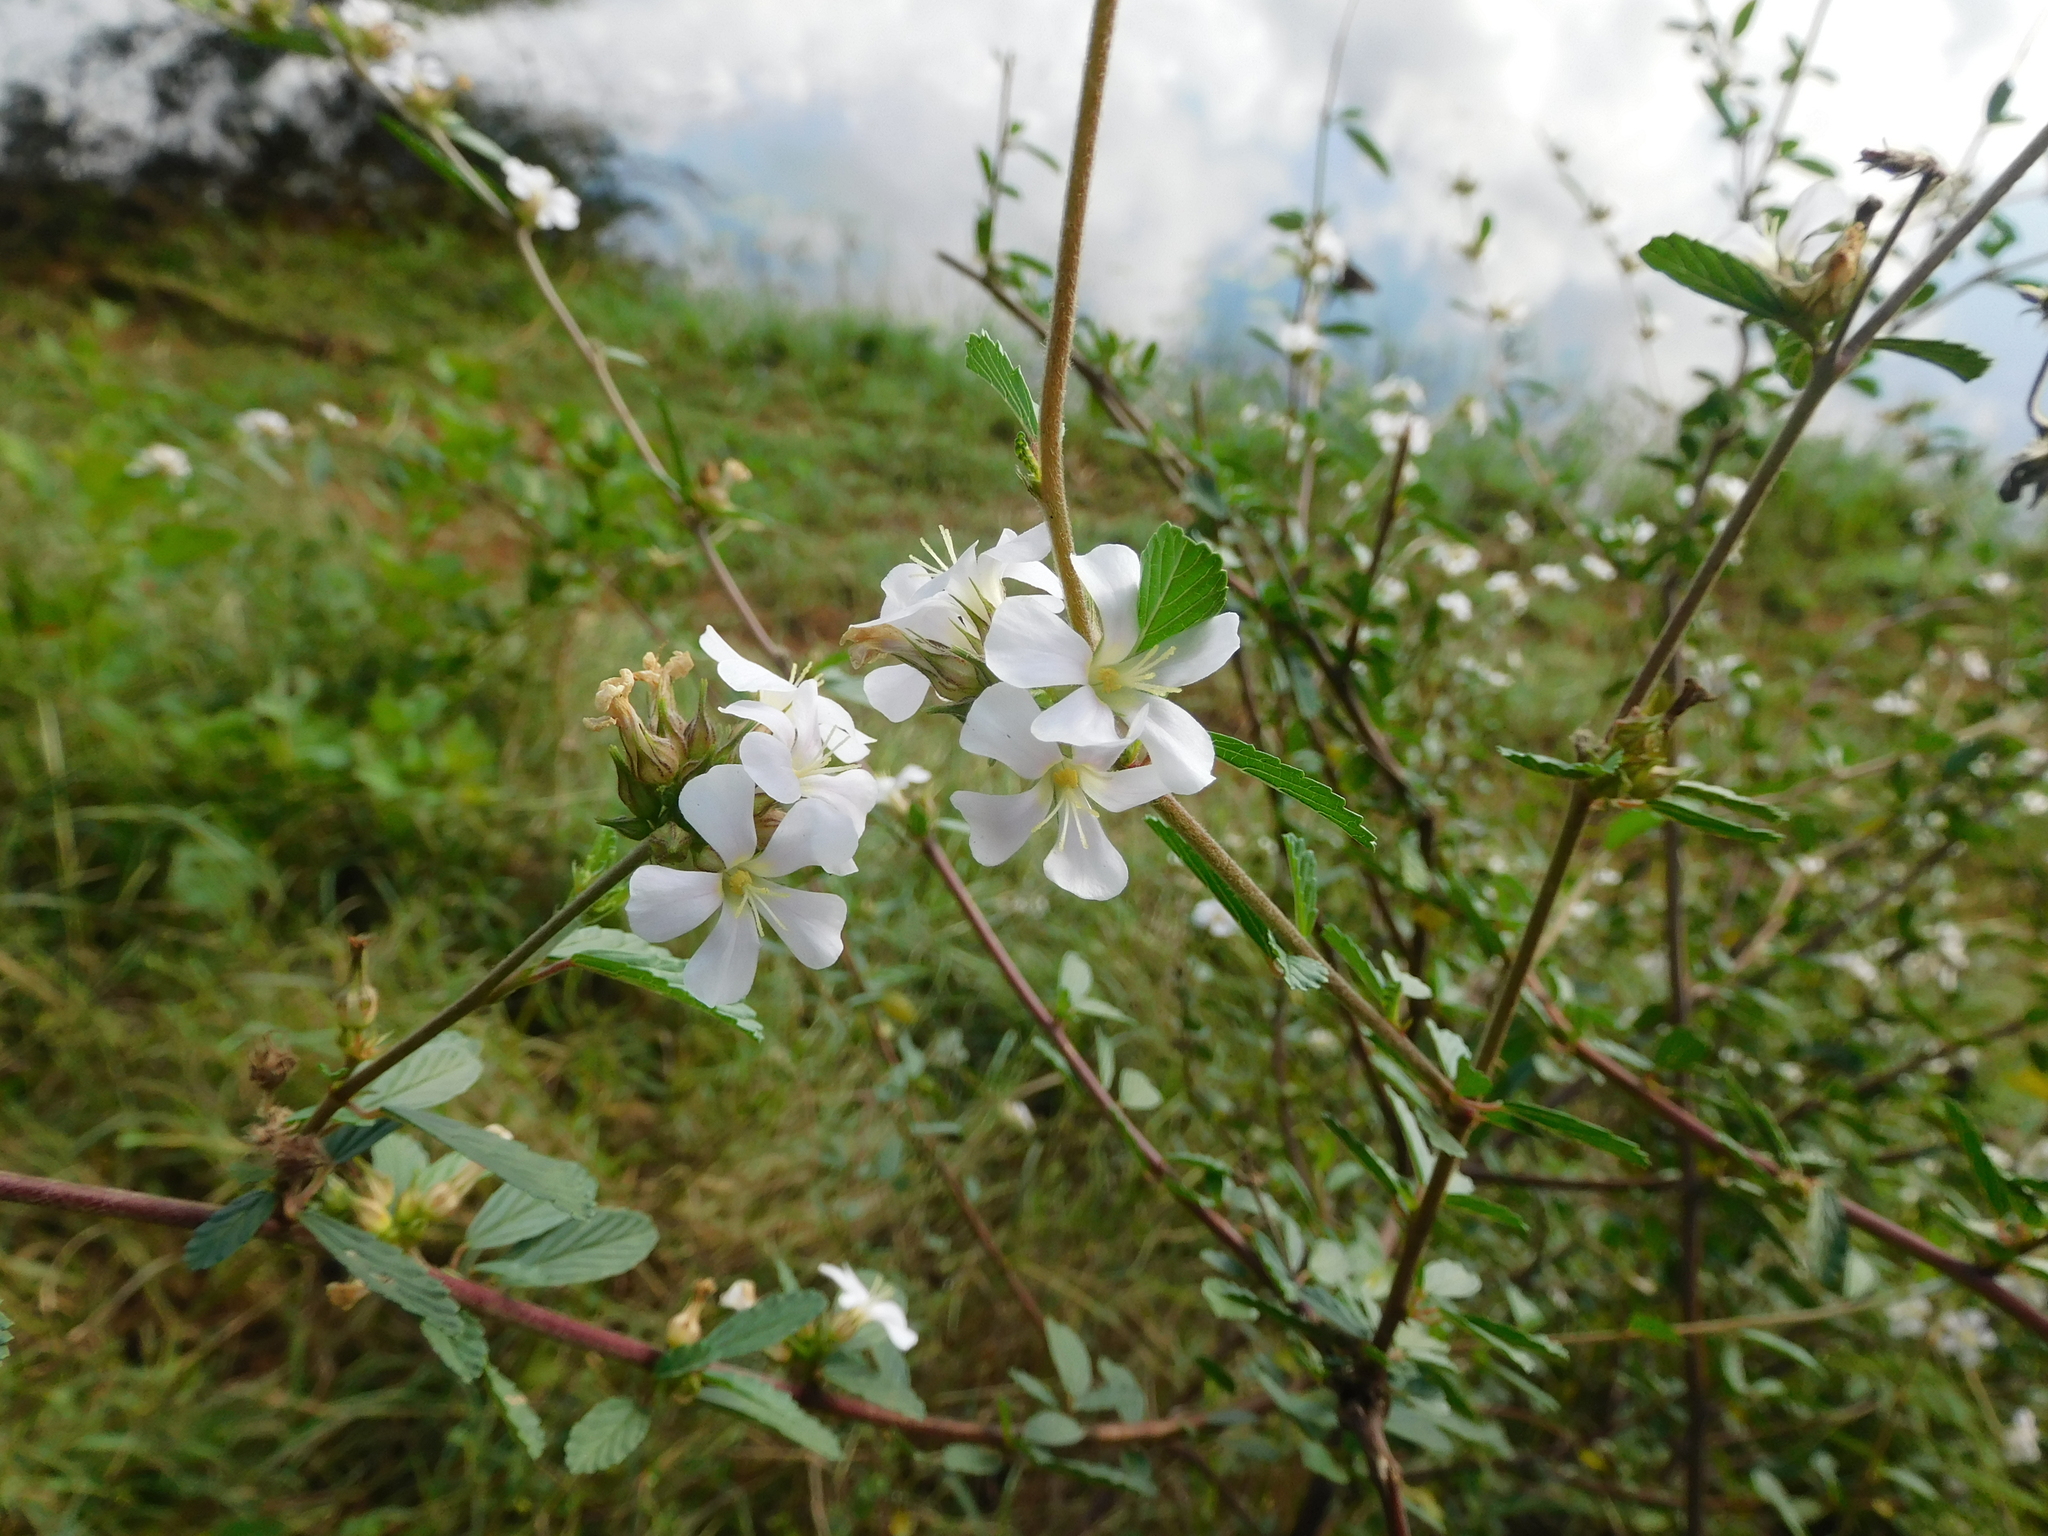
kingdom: Plantae
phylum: Tracheophyta
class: Magnoliopsida
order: Malvales
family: Malvaceae
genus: Melochia
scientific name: Melochia parvifolia
